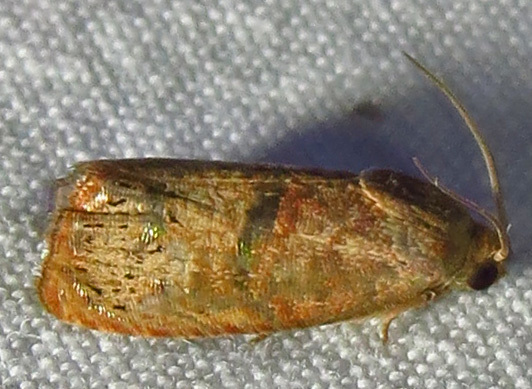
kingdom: Animalia
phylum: Arthropoda
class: Insecta
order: Lepidoptera
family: Tortricidae
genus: Cydia
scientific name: Cydia latiferreana
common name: Filbertworm moth
